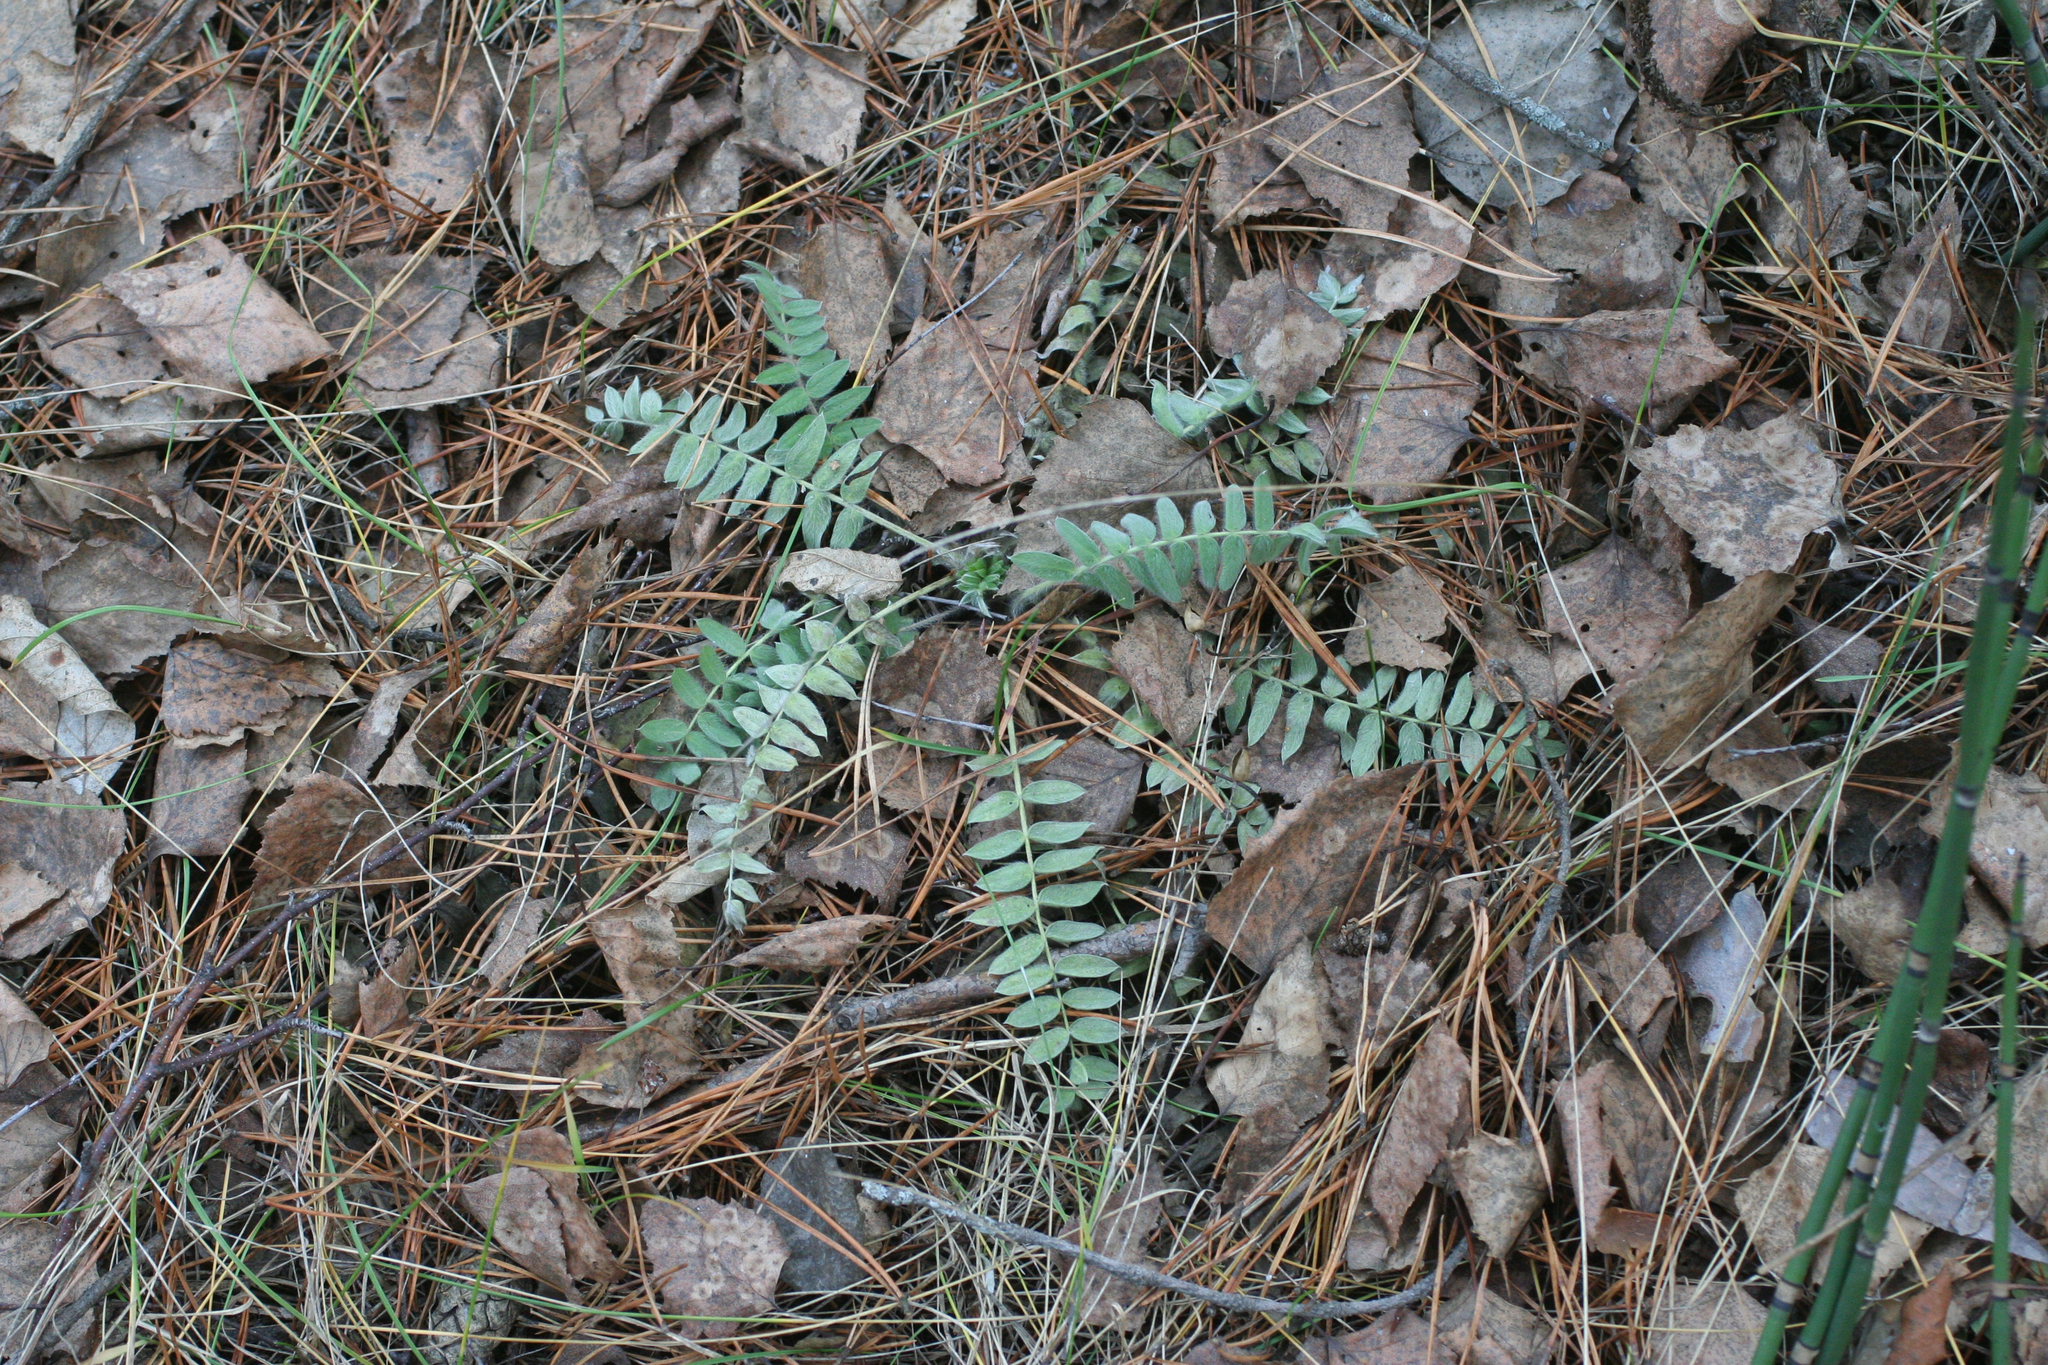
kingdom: Plantae
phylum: Tracheophyta
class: Magnoliopsida
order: Fabales
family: Fabaceae
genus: Oxytropis
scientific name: Oxytropis campanulata
